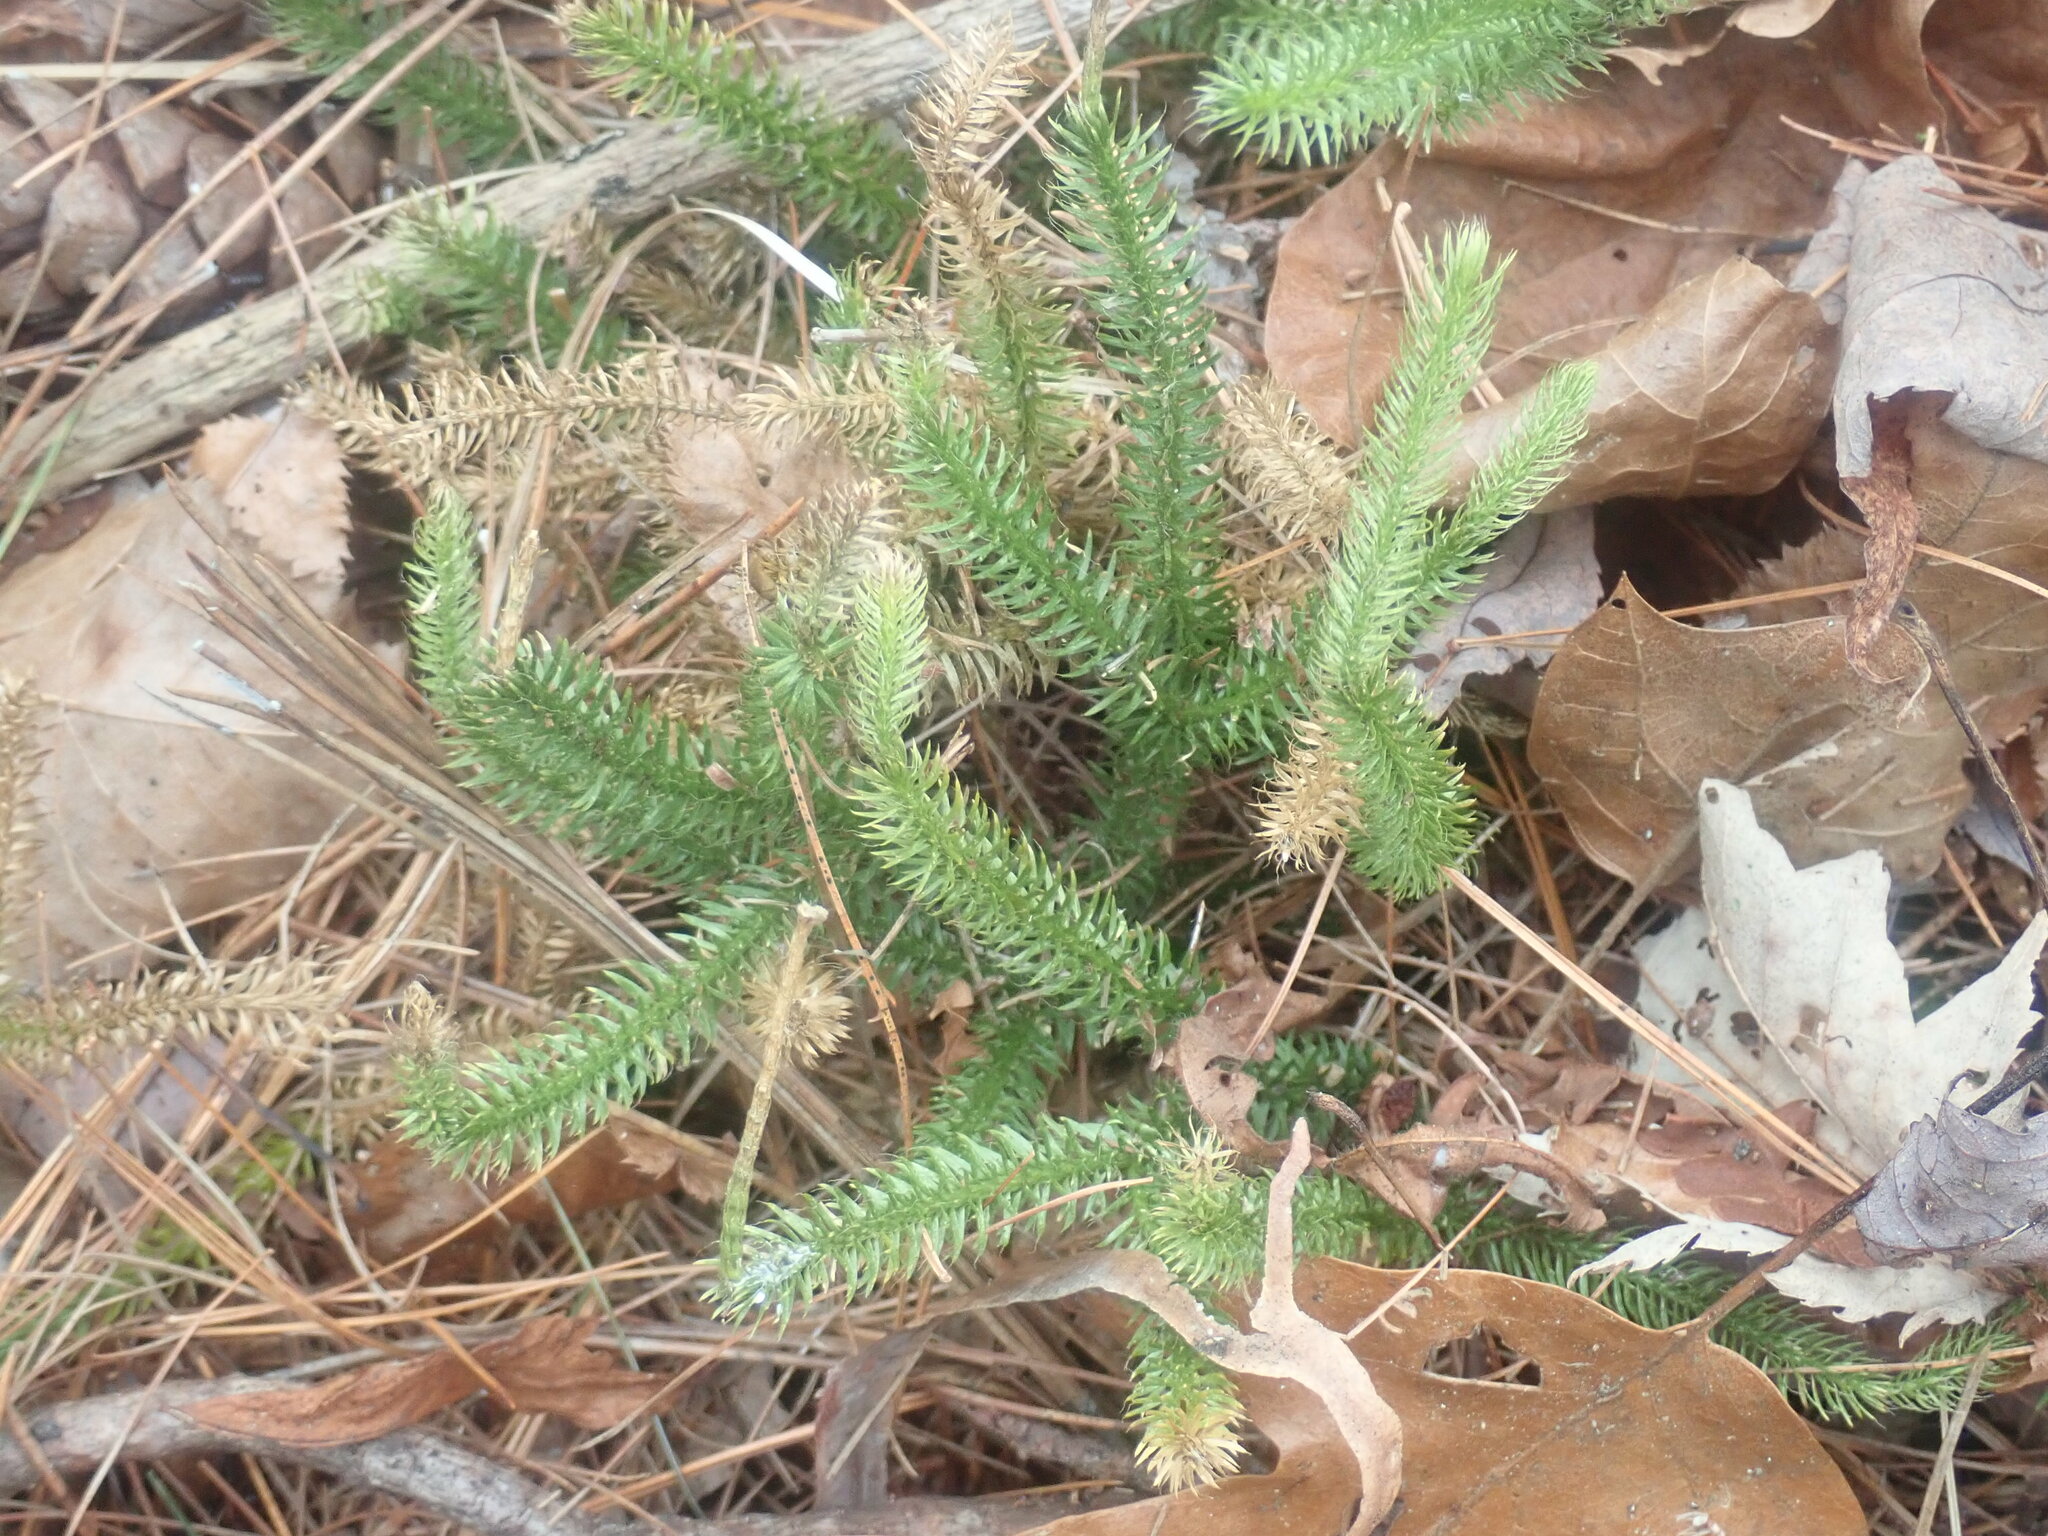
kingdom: Plantae
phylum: Tracheophyta
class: Lycopodiopsida
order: Lycopodiales
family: Lycopodiaceae
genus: Lycopodium
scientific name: Lycopodium clavatum
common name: Stag's-horn clubmoss
